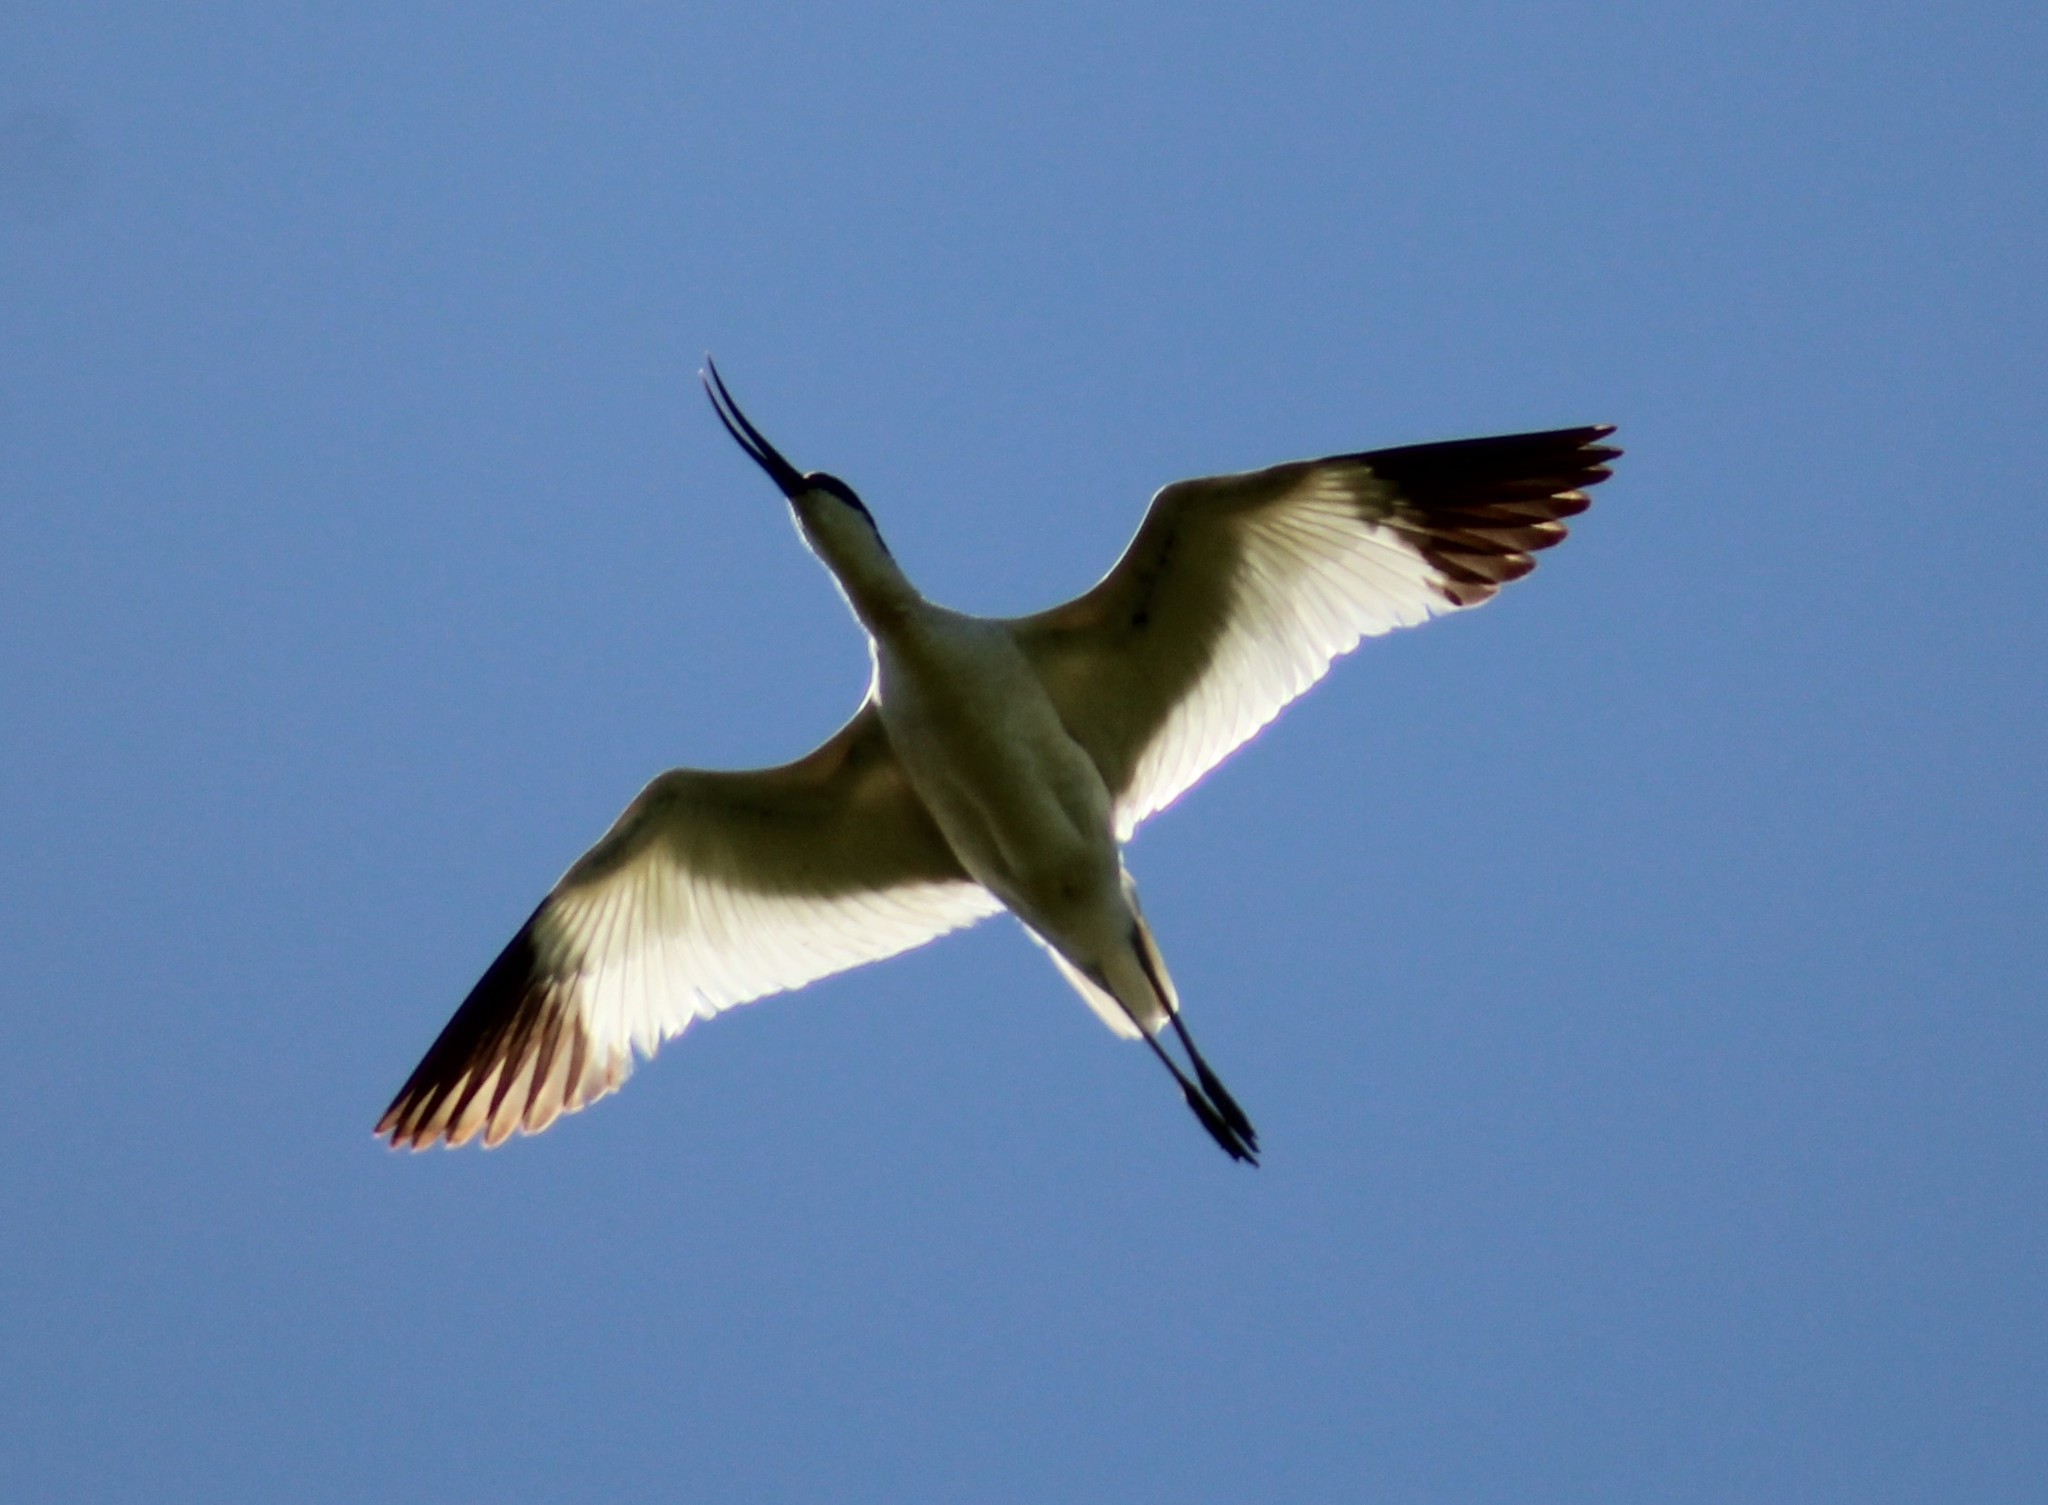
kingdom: Animalia
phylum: Chordata
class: Aves
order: Charadriiformes
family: Recurvirostridae
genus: Recurvirostra
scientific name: Recurvirostra avosetta
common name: Pied avocet
